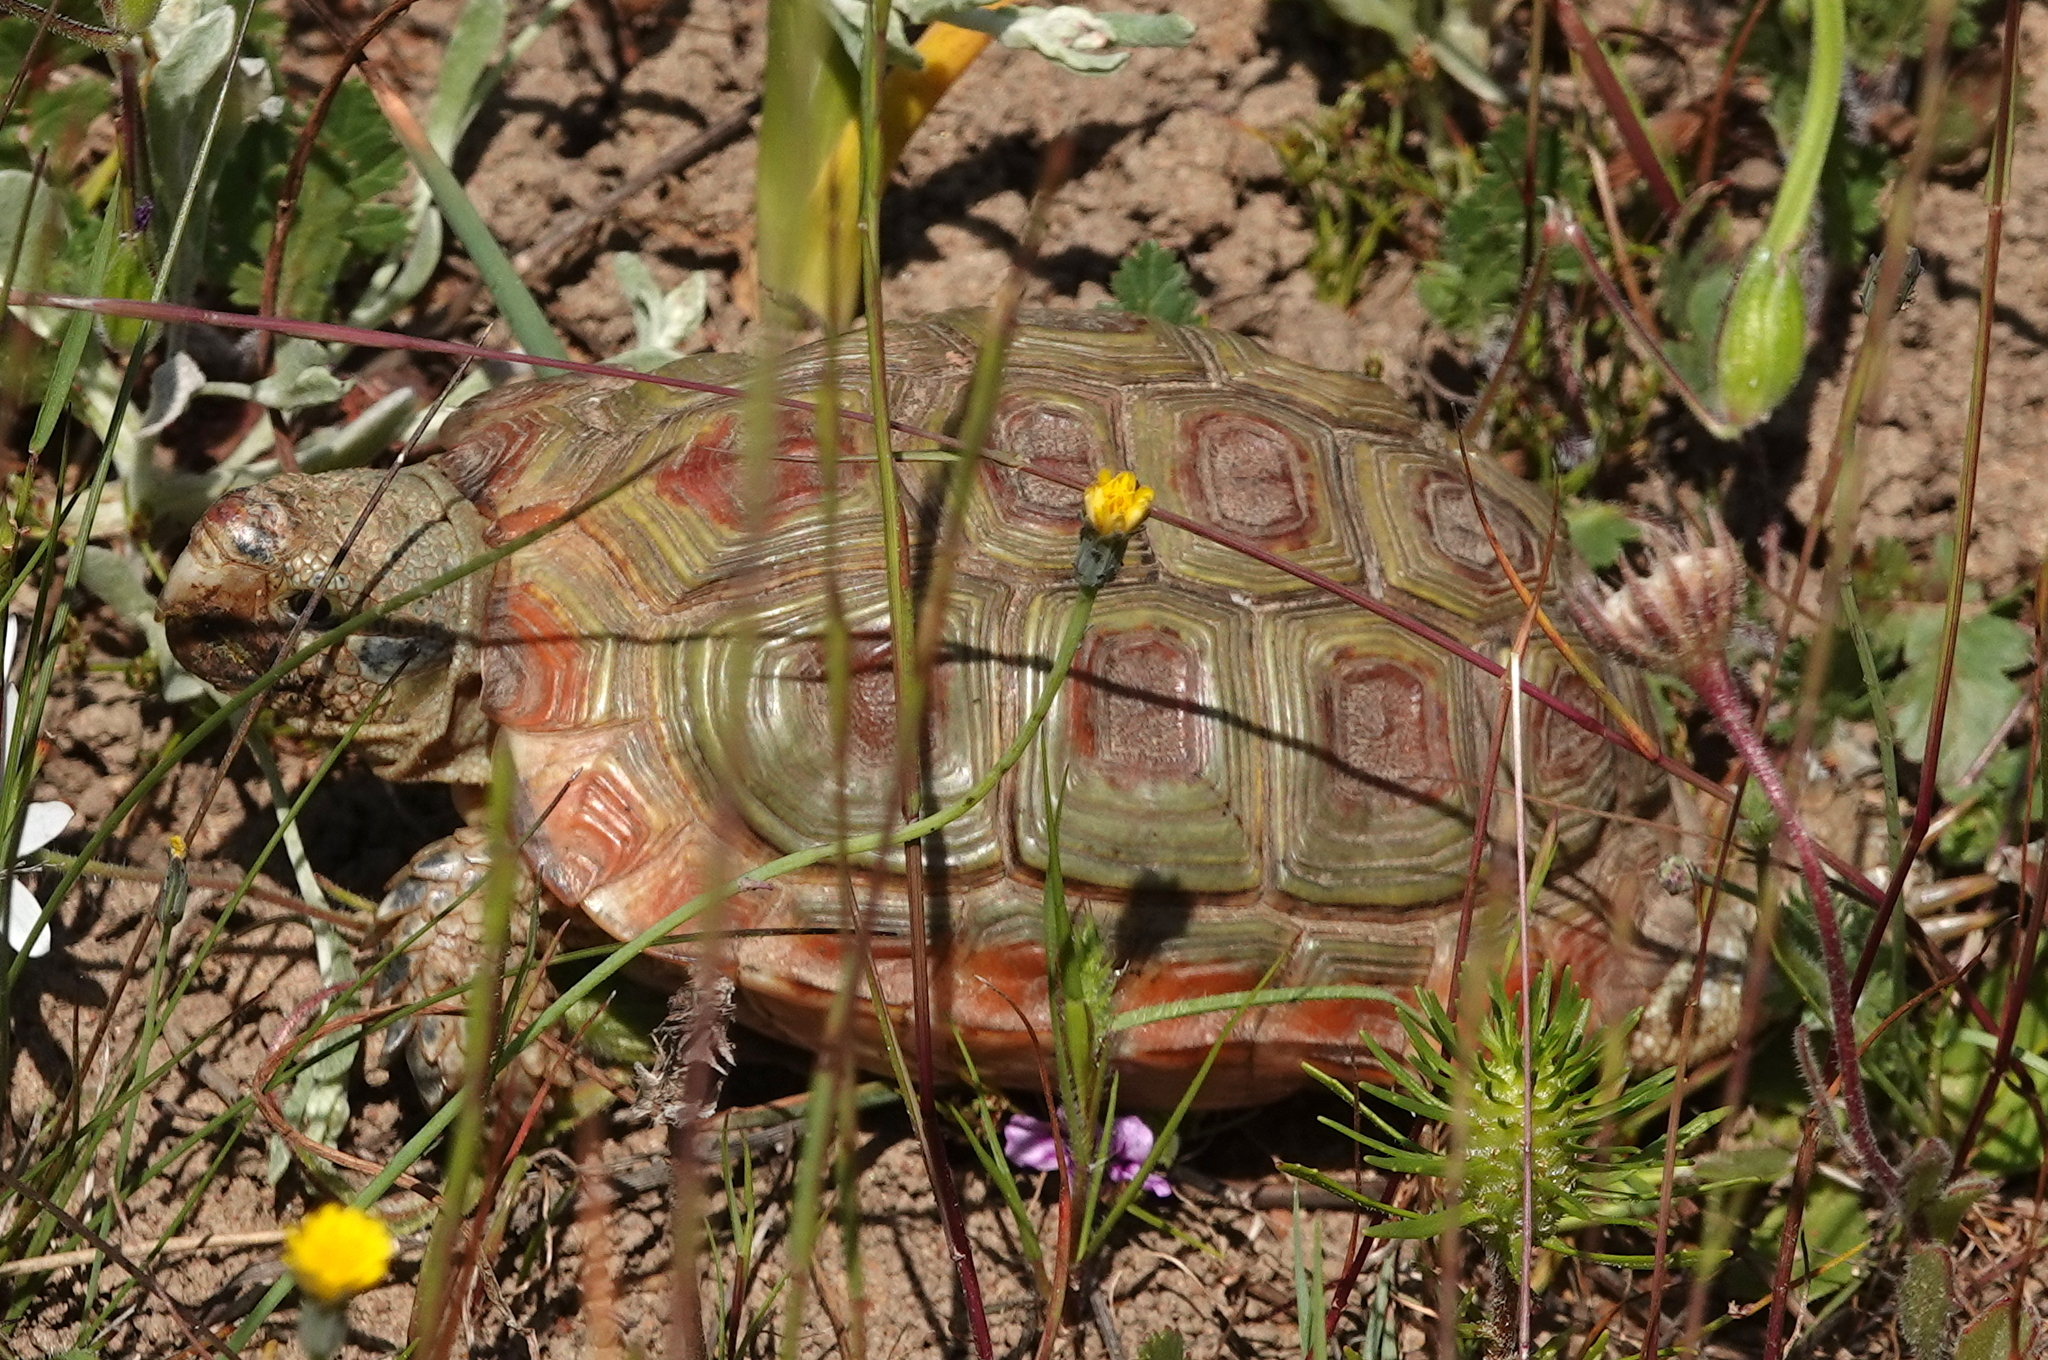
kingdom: Animalia
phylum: Chordata
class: Testudines
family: Testudinidae
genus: Homopus
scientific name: Homopus areolatus
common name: Parrot-beaked tortoise
